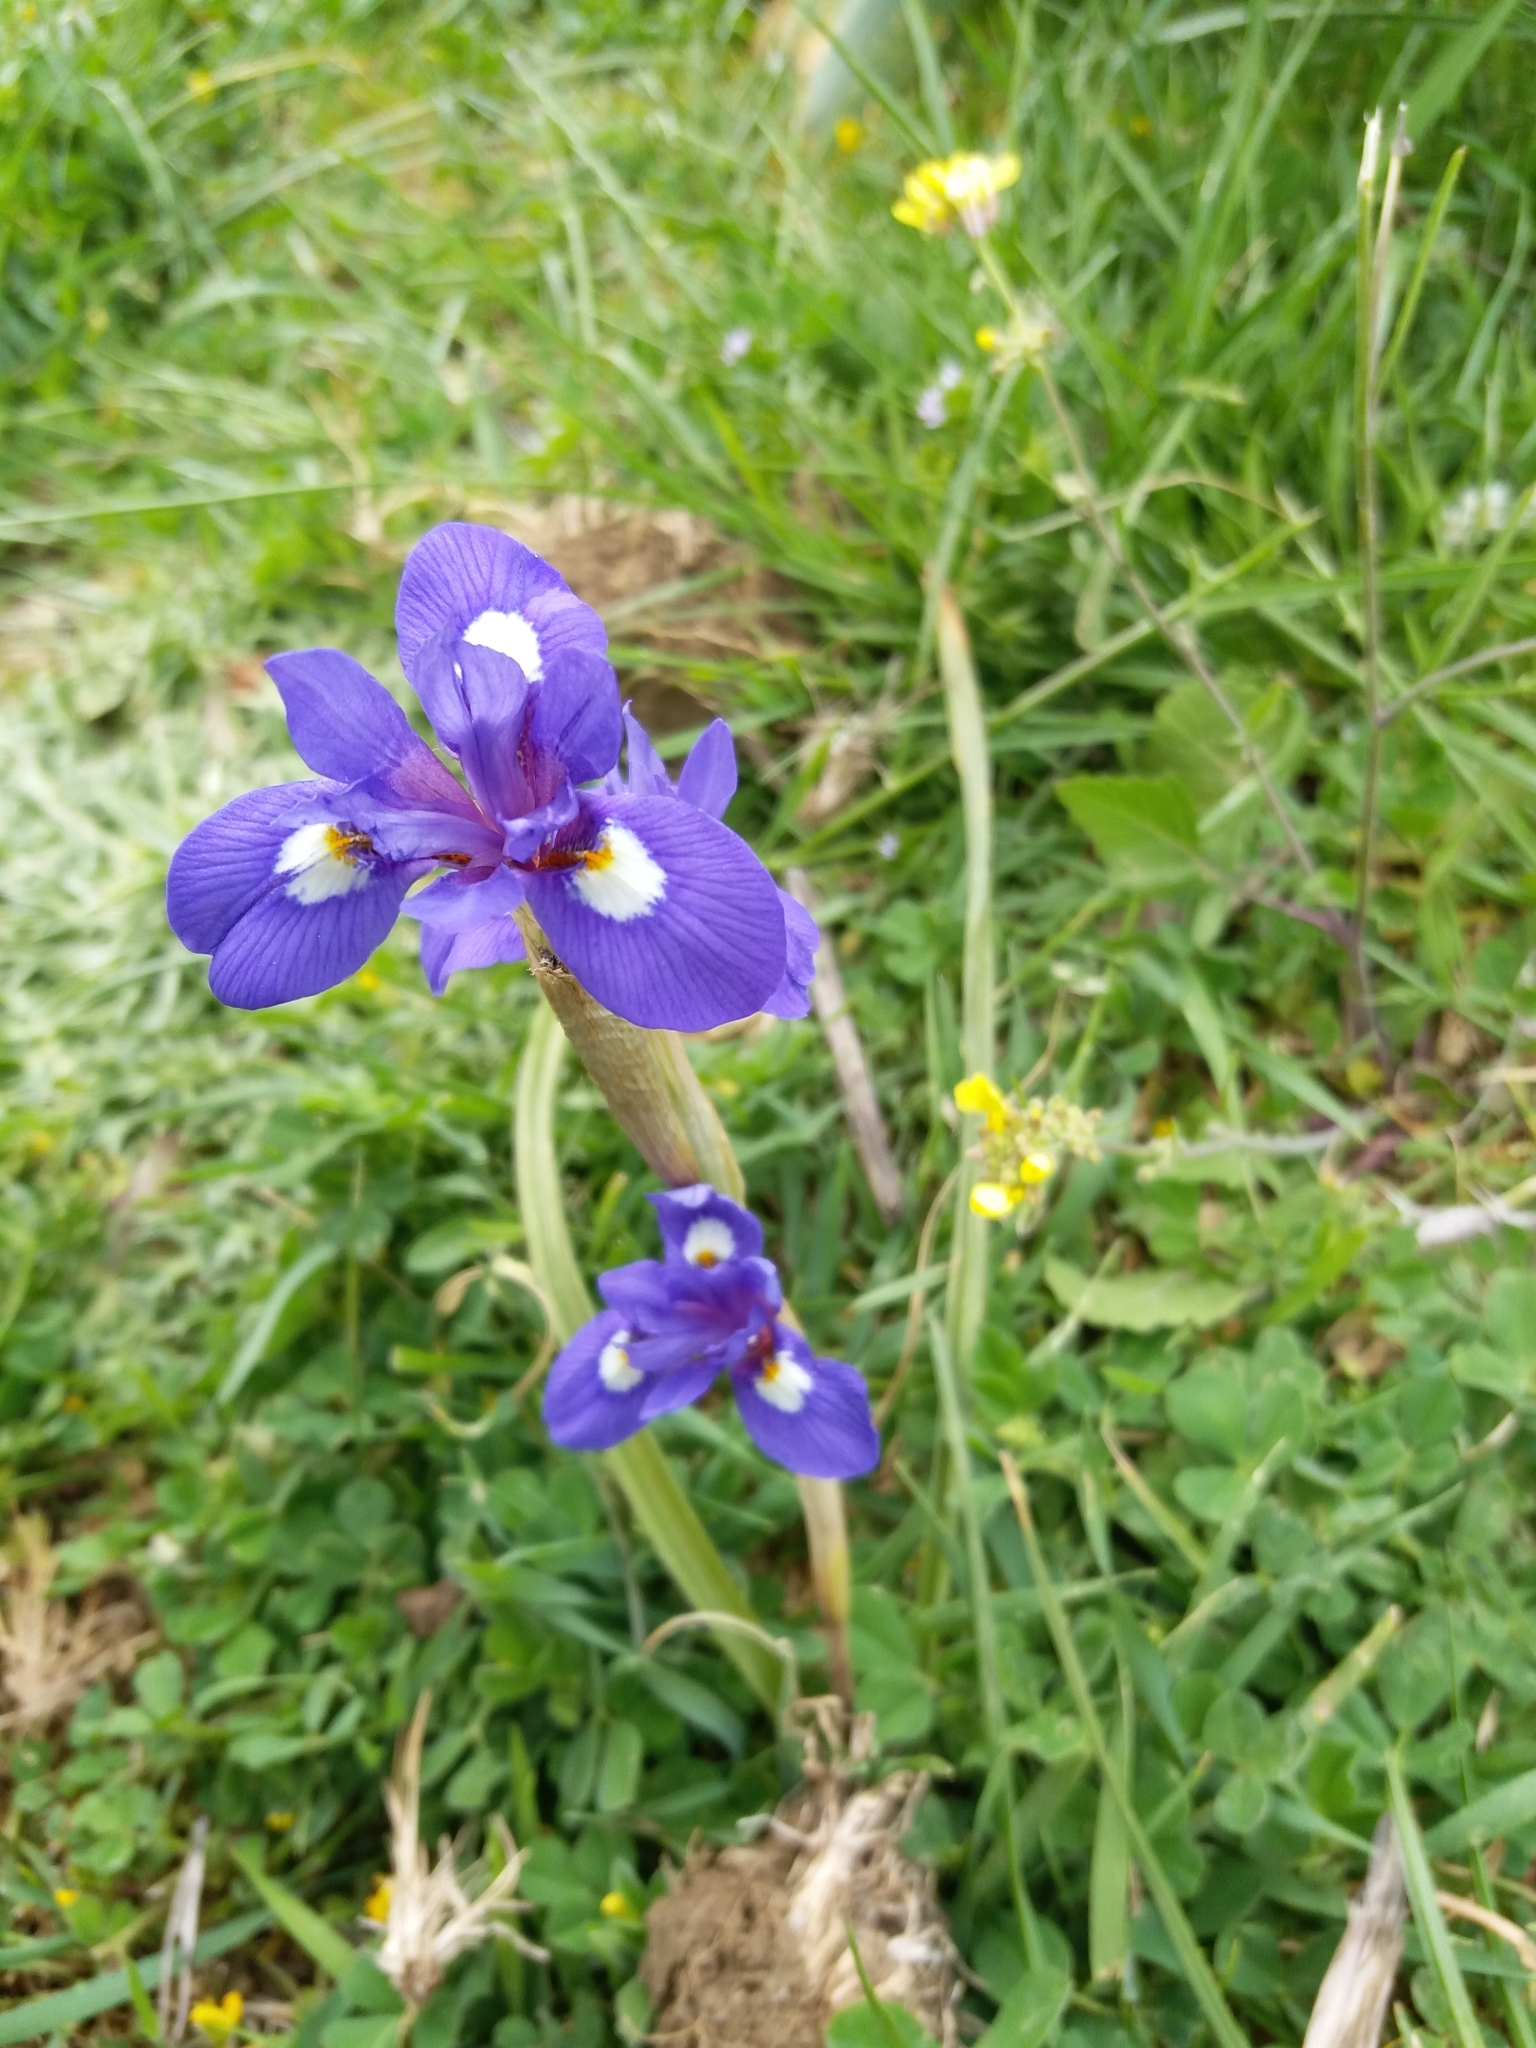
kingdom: Plantae
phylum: Tracheophyta
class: Liliopsida
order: Asparagales
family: Iridaceae
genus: Moraea
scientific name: Moraea sisyrinchium
